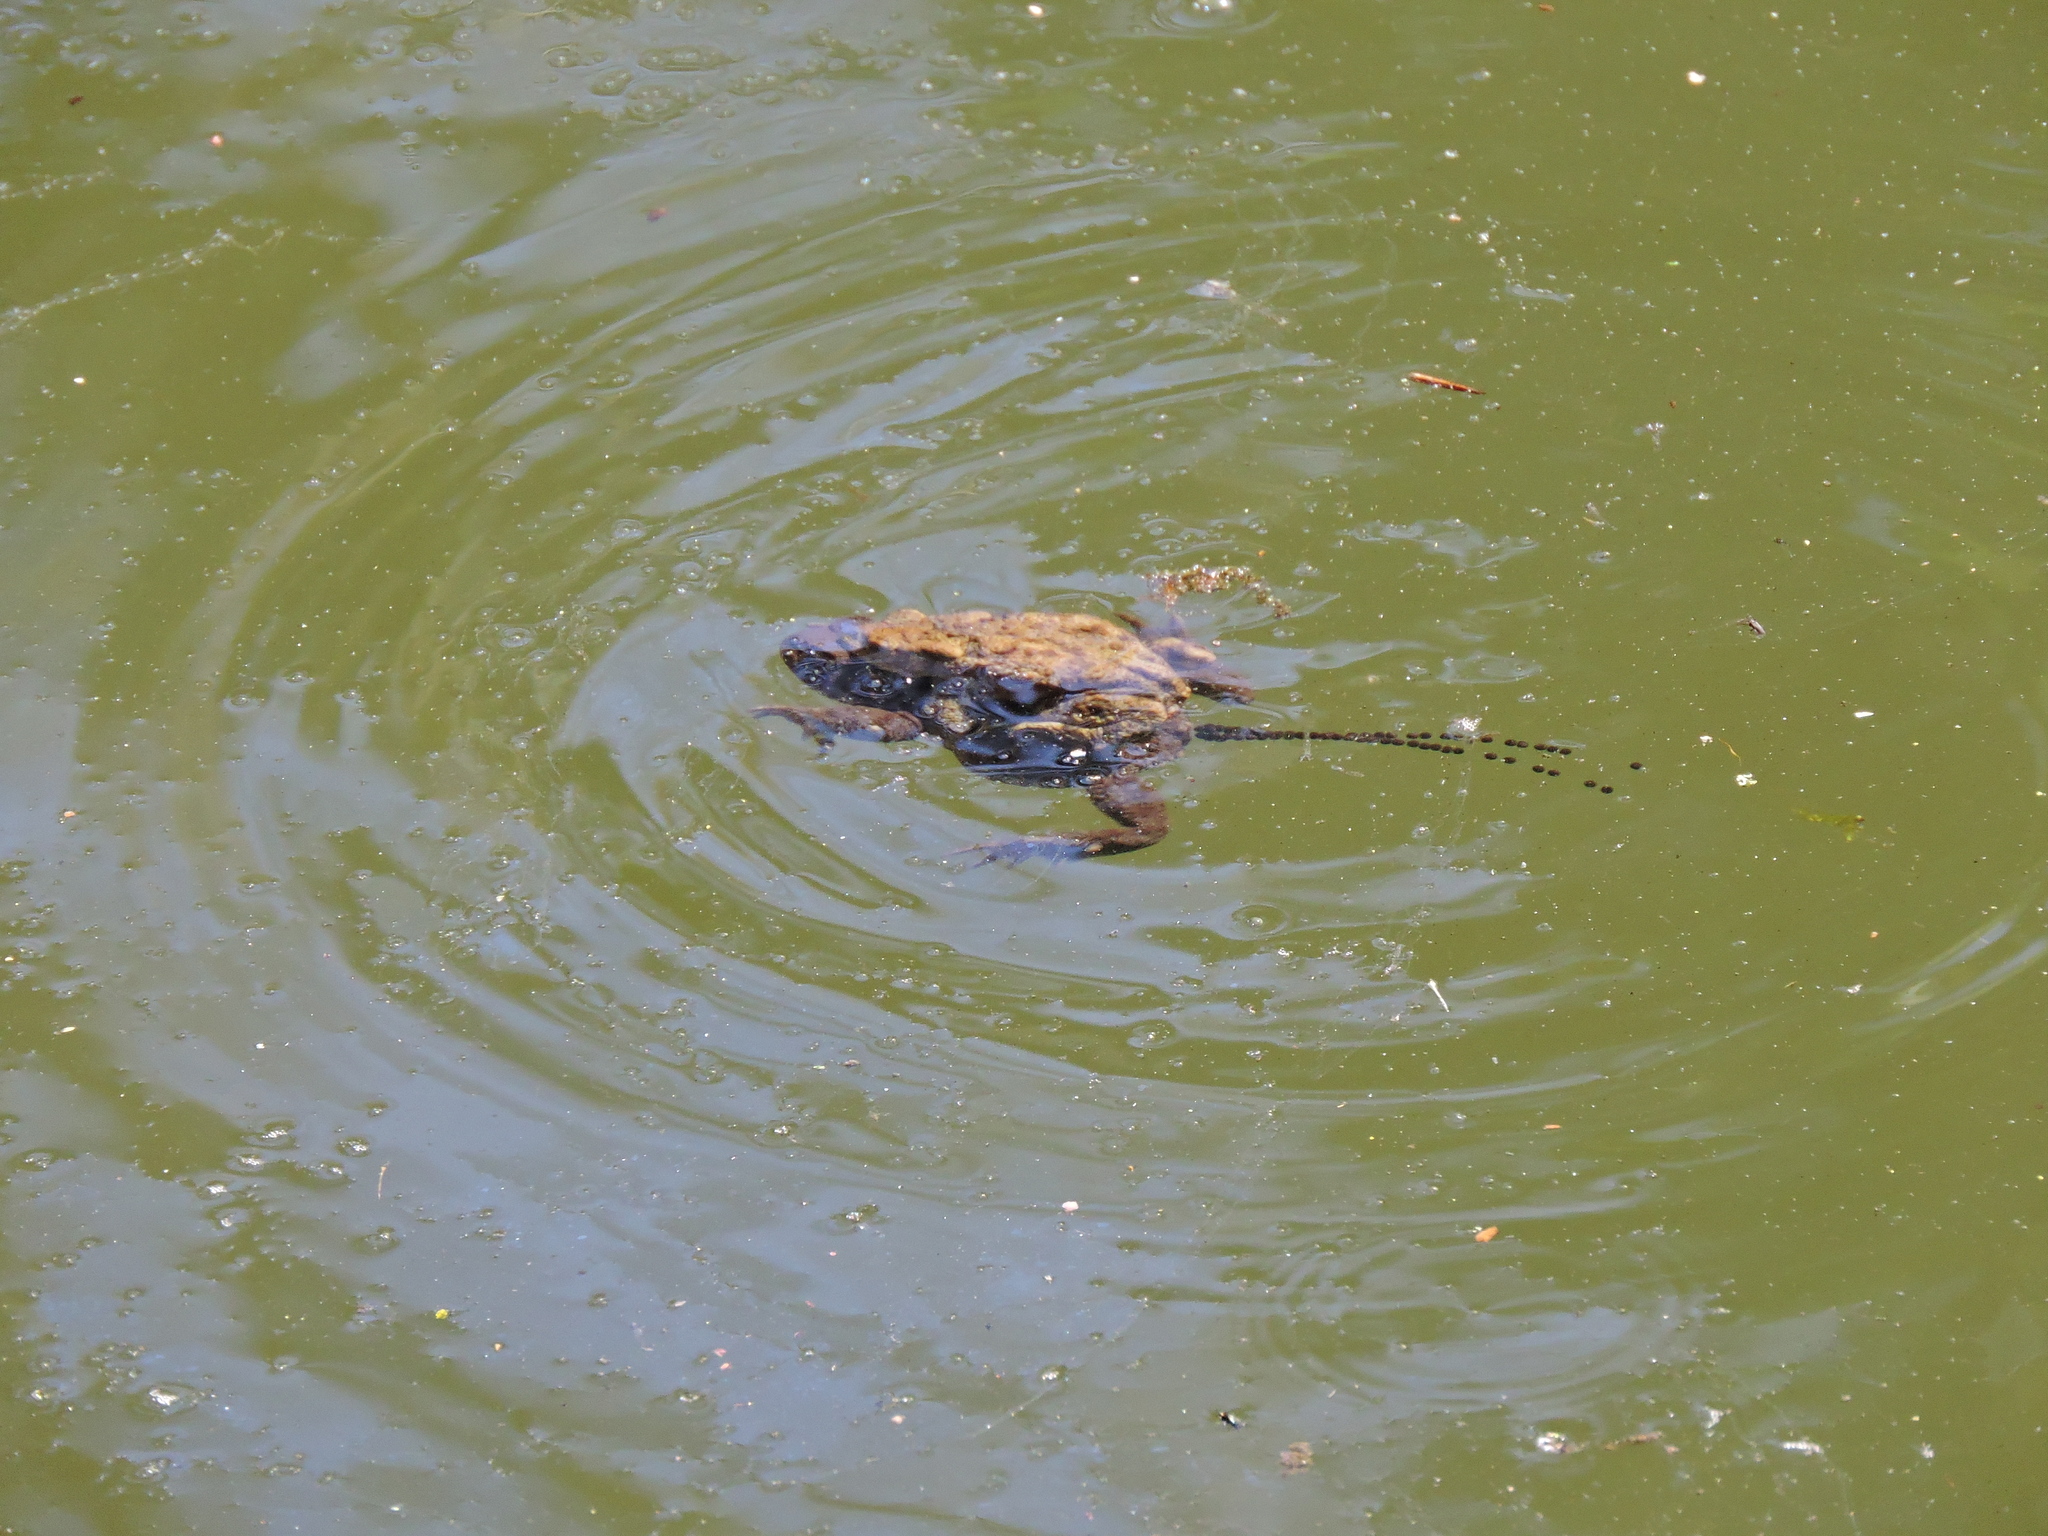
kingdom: Animalia
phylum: Chordata
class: Amphibia
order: Anura
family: Bufonidae
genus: Bufo
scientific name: Bufo bufo
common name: Common toad
